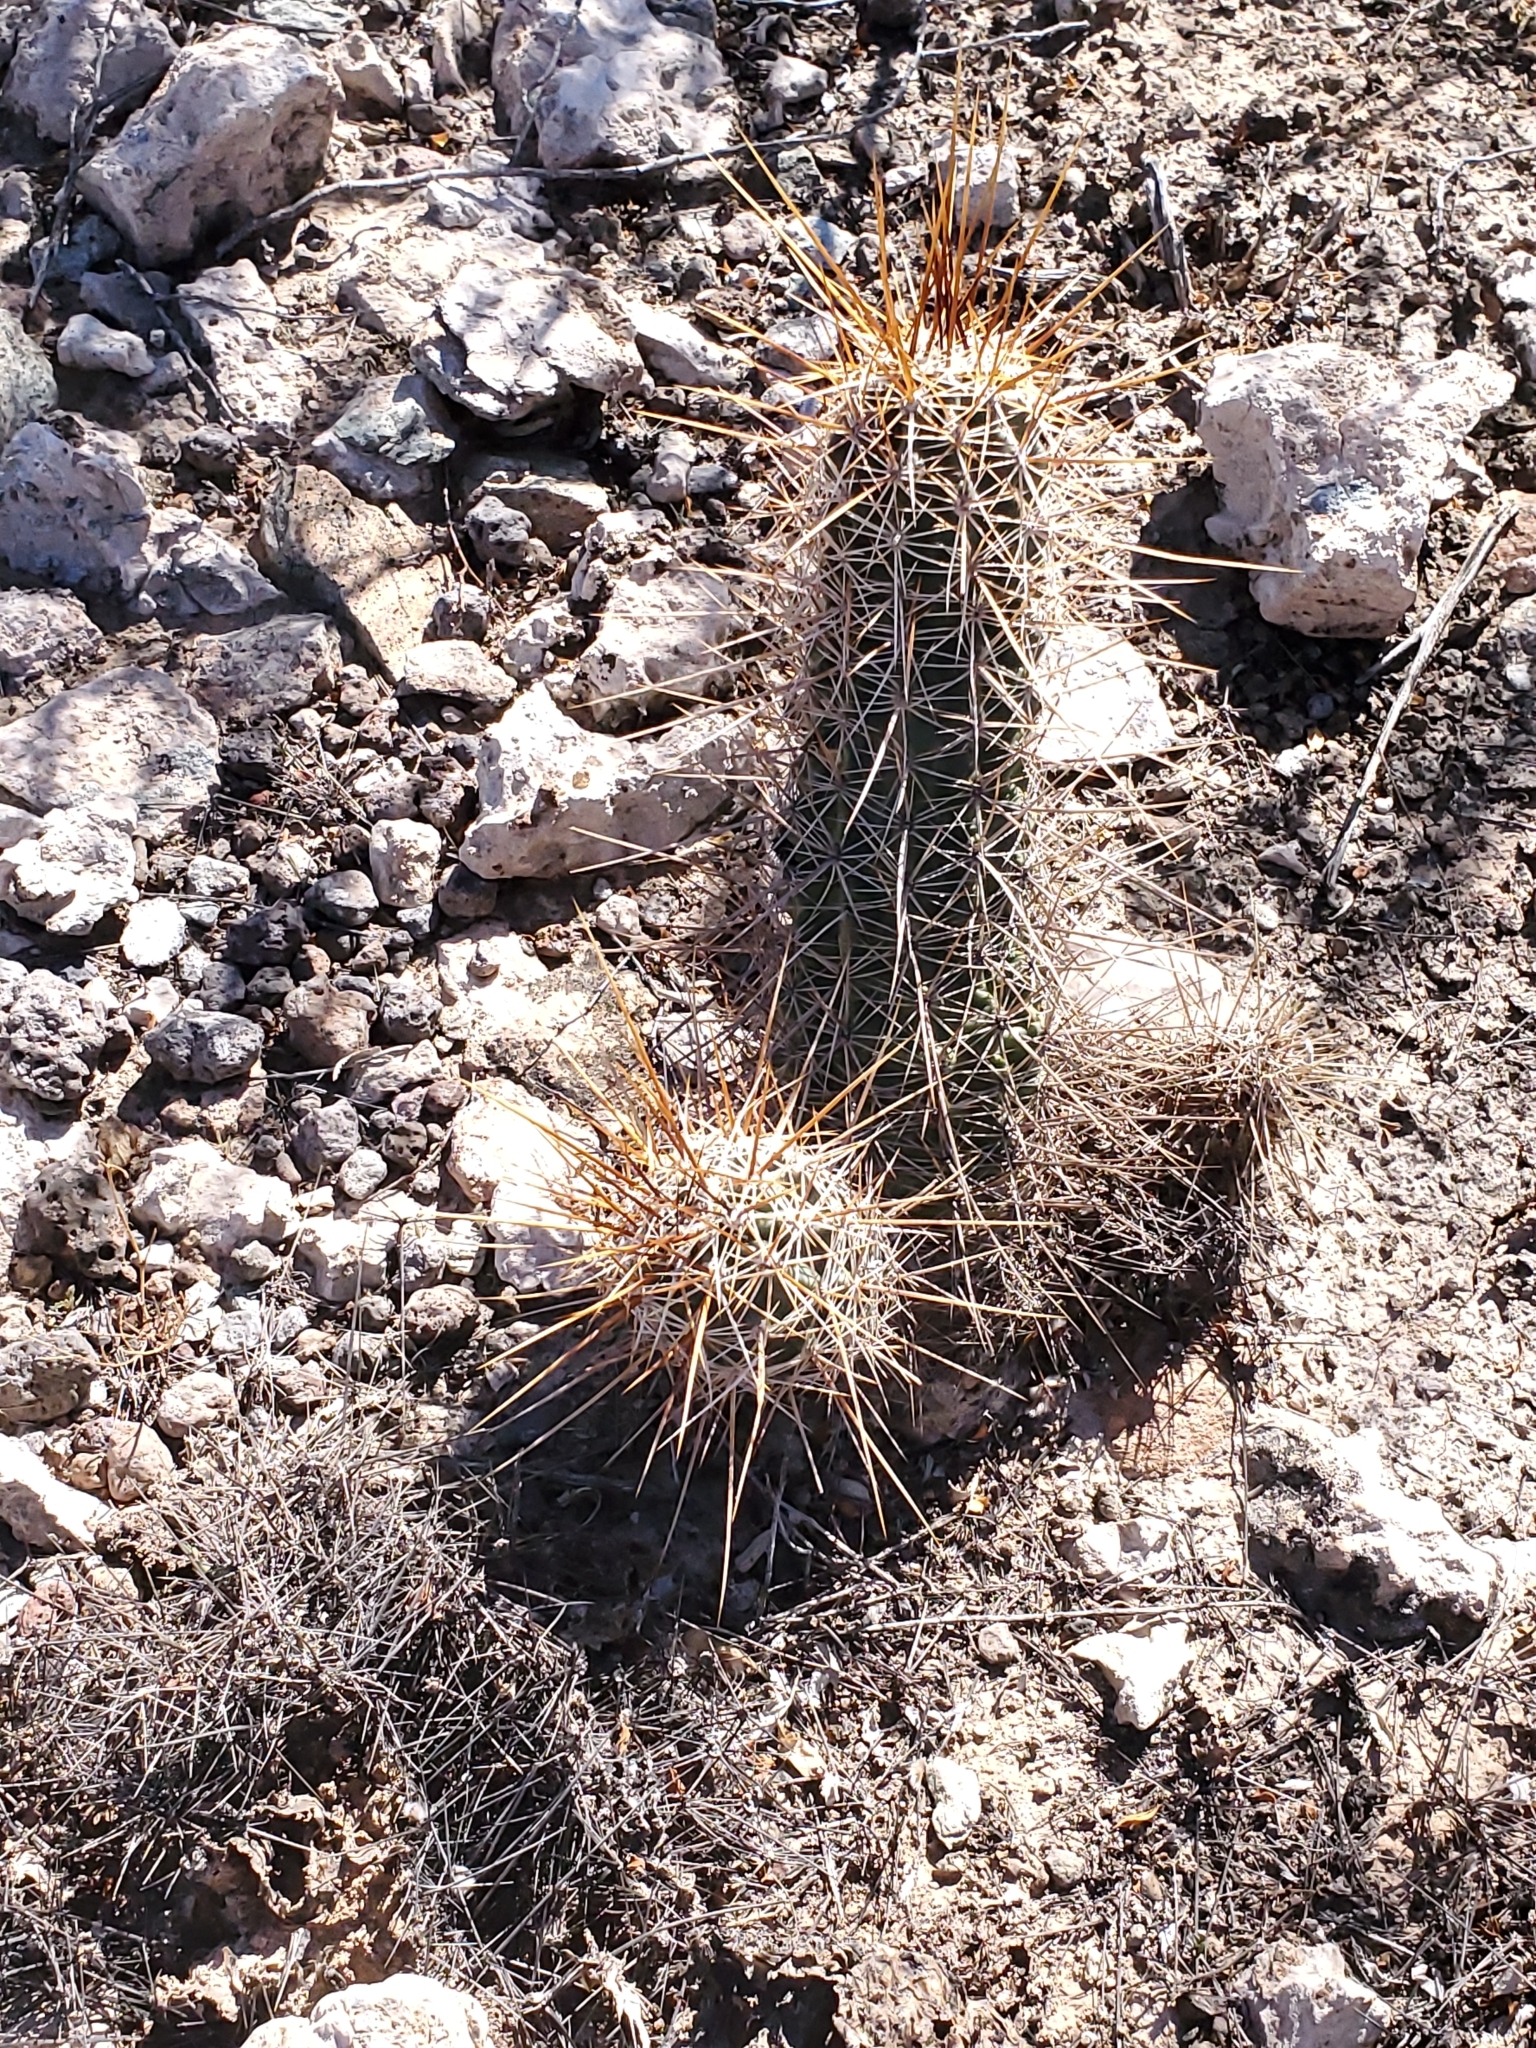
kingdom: Plantae
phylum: Tracheophyta
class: Magnoliopsida
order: Caryophyllales
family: Cactaceae
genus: Echinocereus
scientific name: Echinocereus engelmannii
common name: Engelmann's hedgehog cactus
